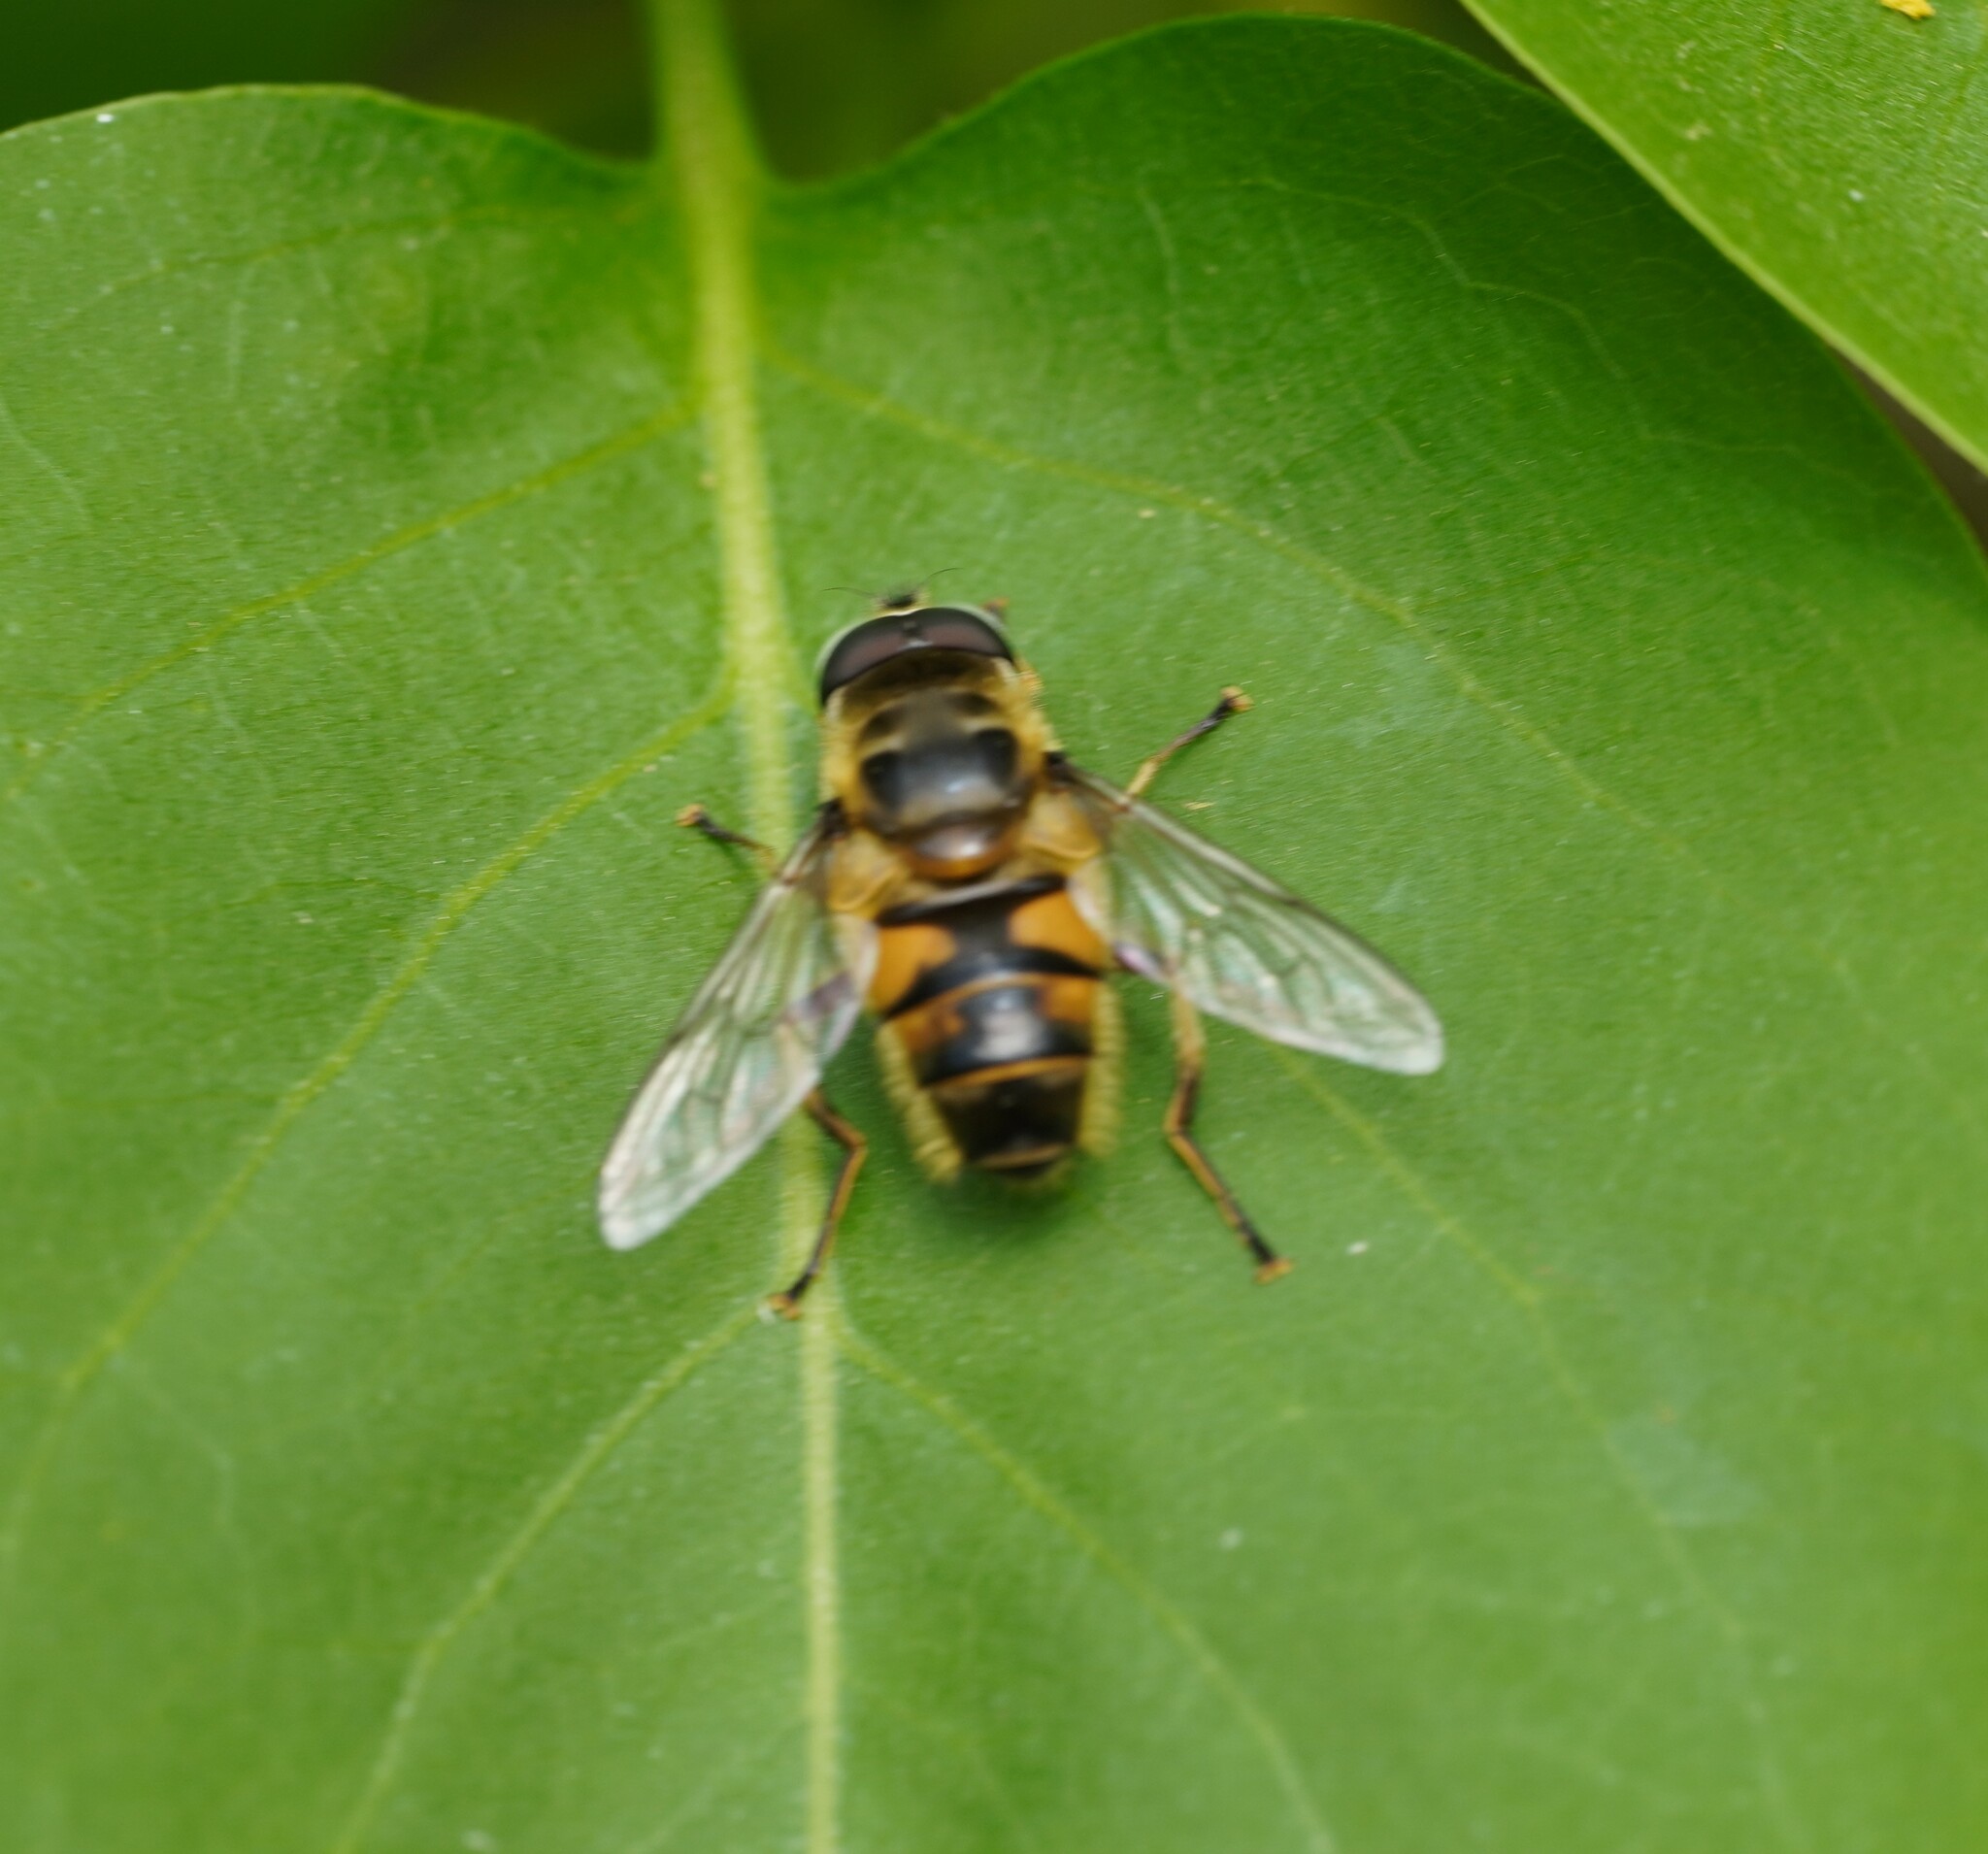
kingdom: Animalia
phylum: Arthropoda
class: Insecta
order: Diptera
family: Syrphidae
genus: Myathropa
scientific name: Myathropa florea
